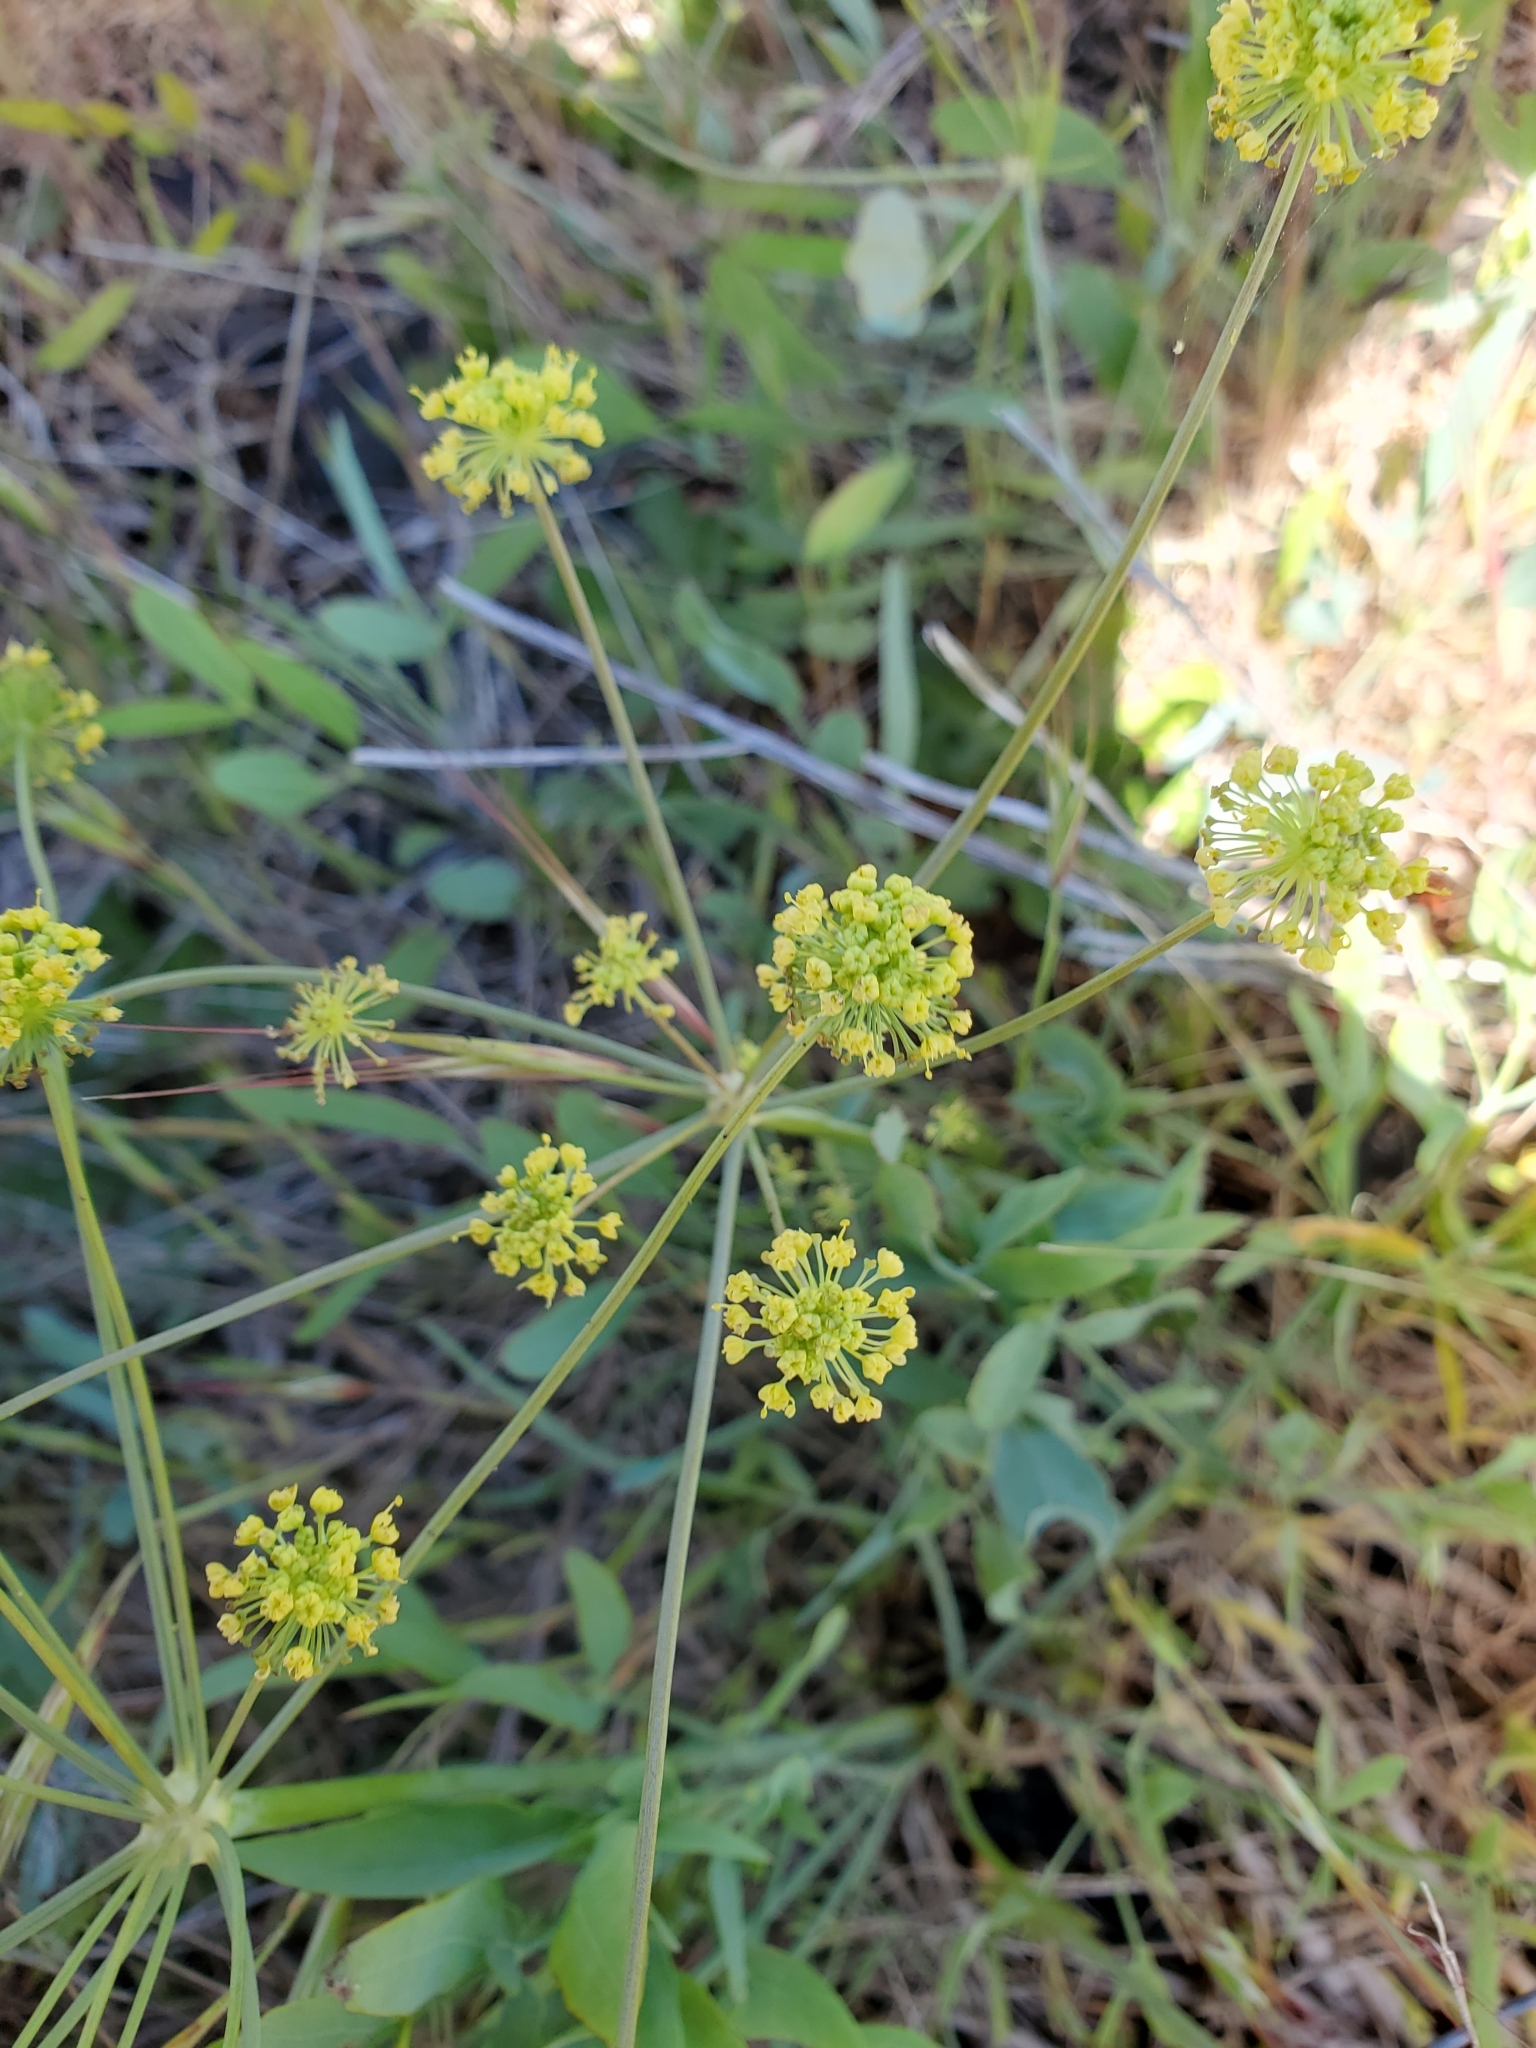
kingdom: Plantae
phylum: Tracheophyta
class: Magnoliopsida
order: Apiales
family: Apiaceae
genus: Lomatium
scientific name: Lomatium nudicaule
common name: Pestle lomatium
